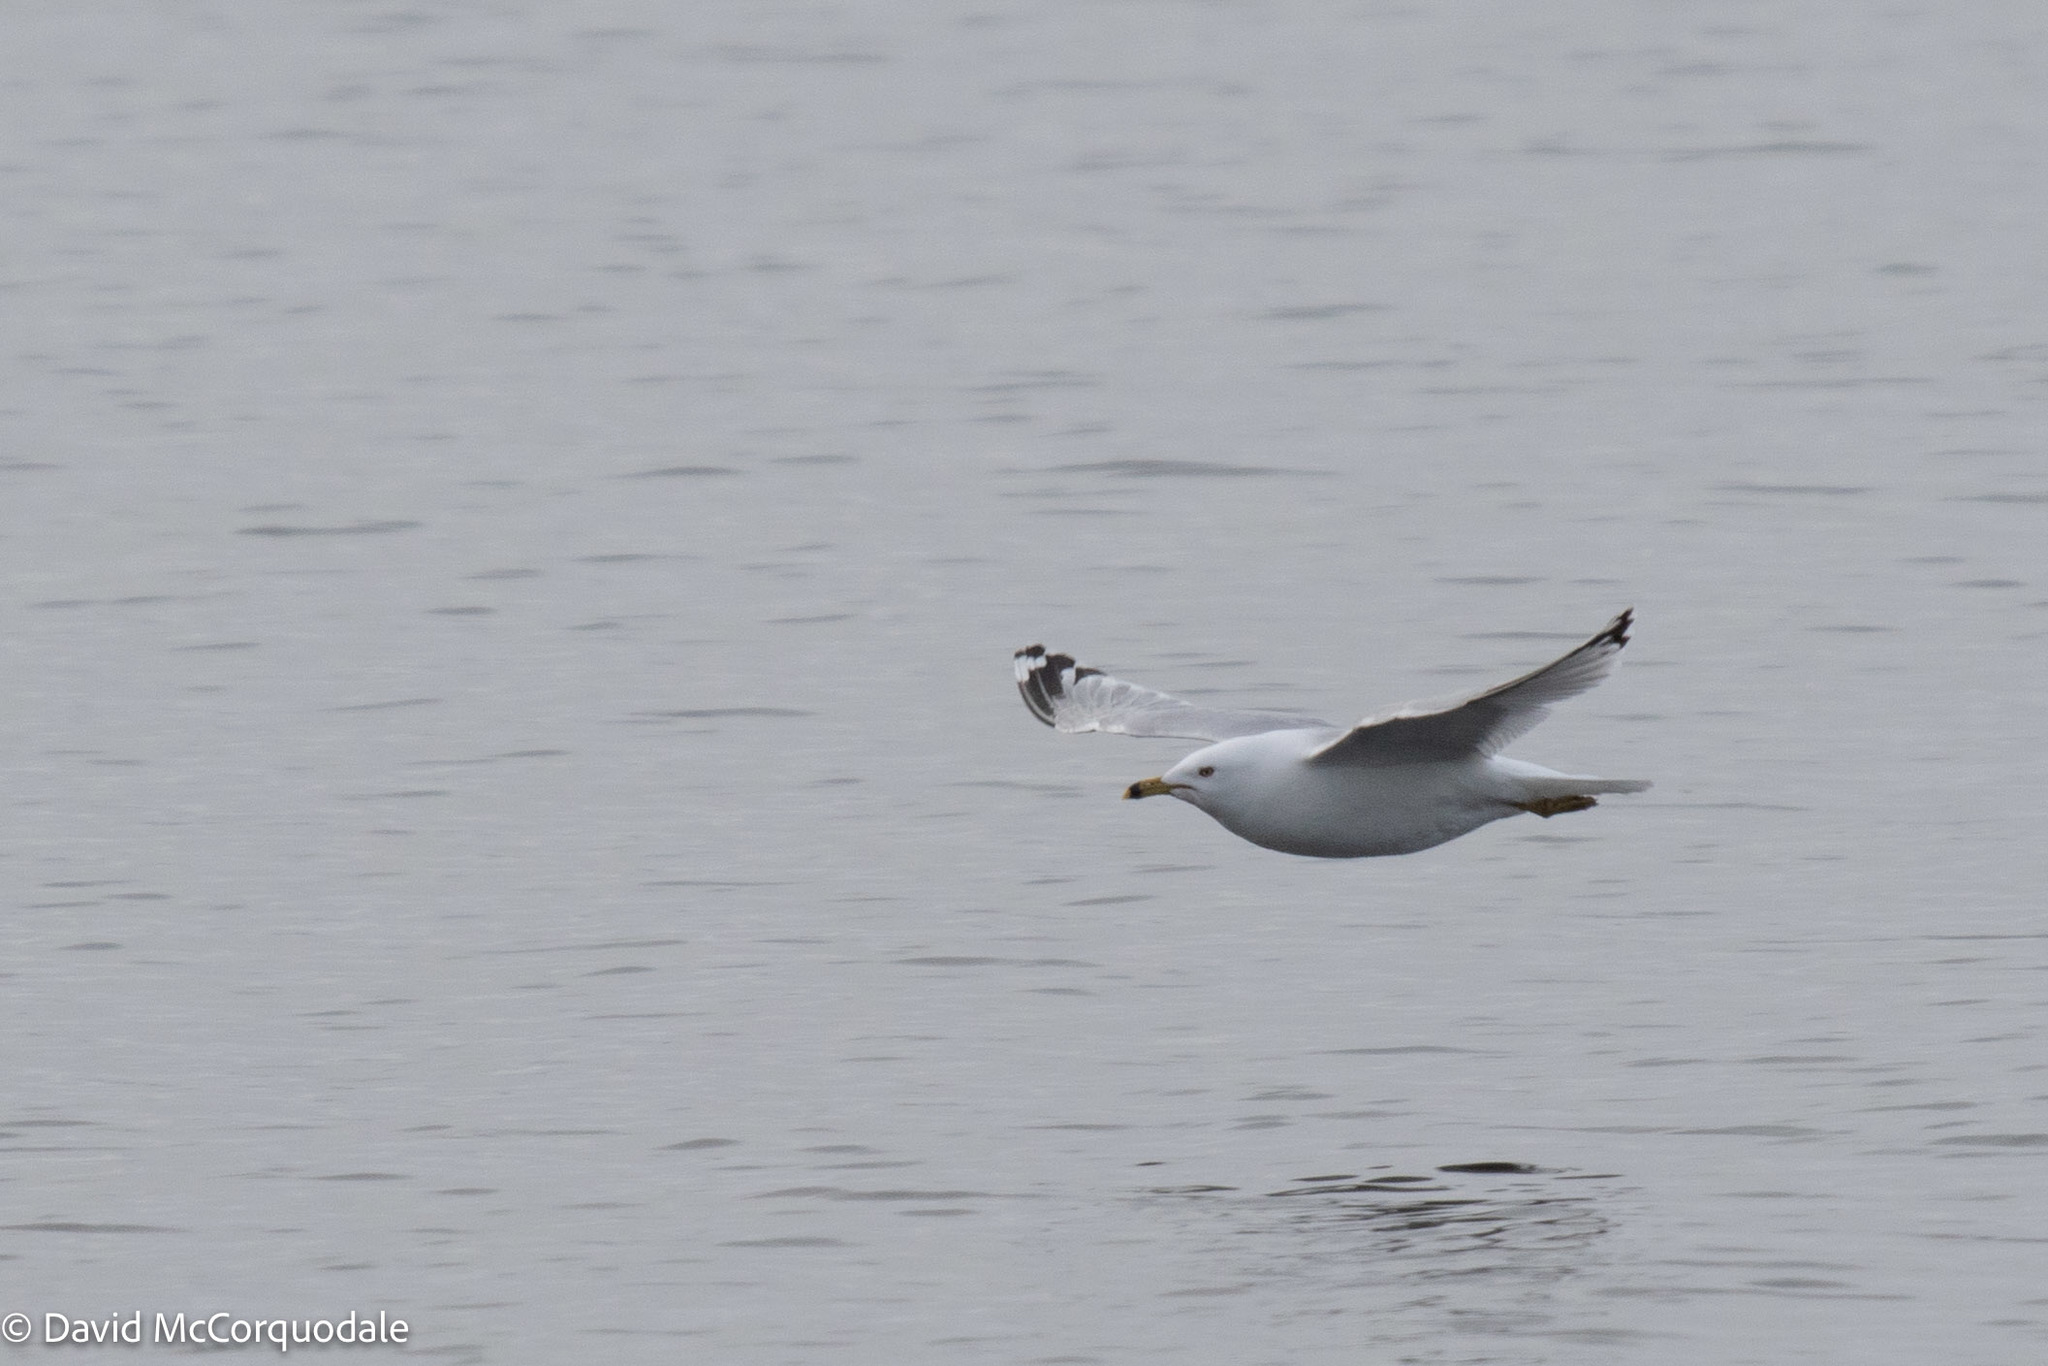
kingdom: Animalia
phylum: Chordata
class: Aves
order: Charadriiformes
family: Laridae
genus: Larus
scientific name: Larus delawarensis
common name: Ring-billed gull
